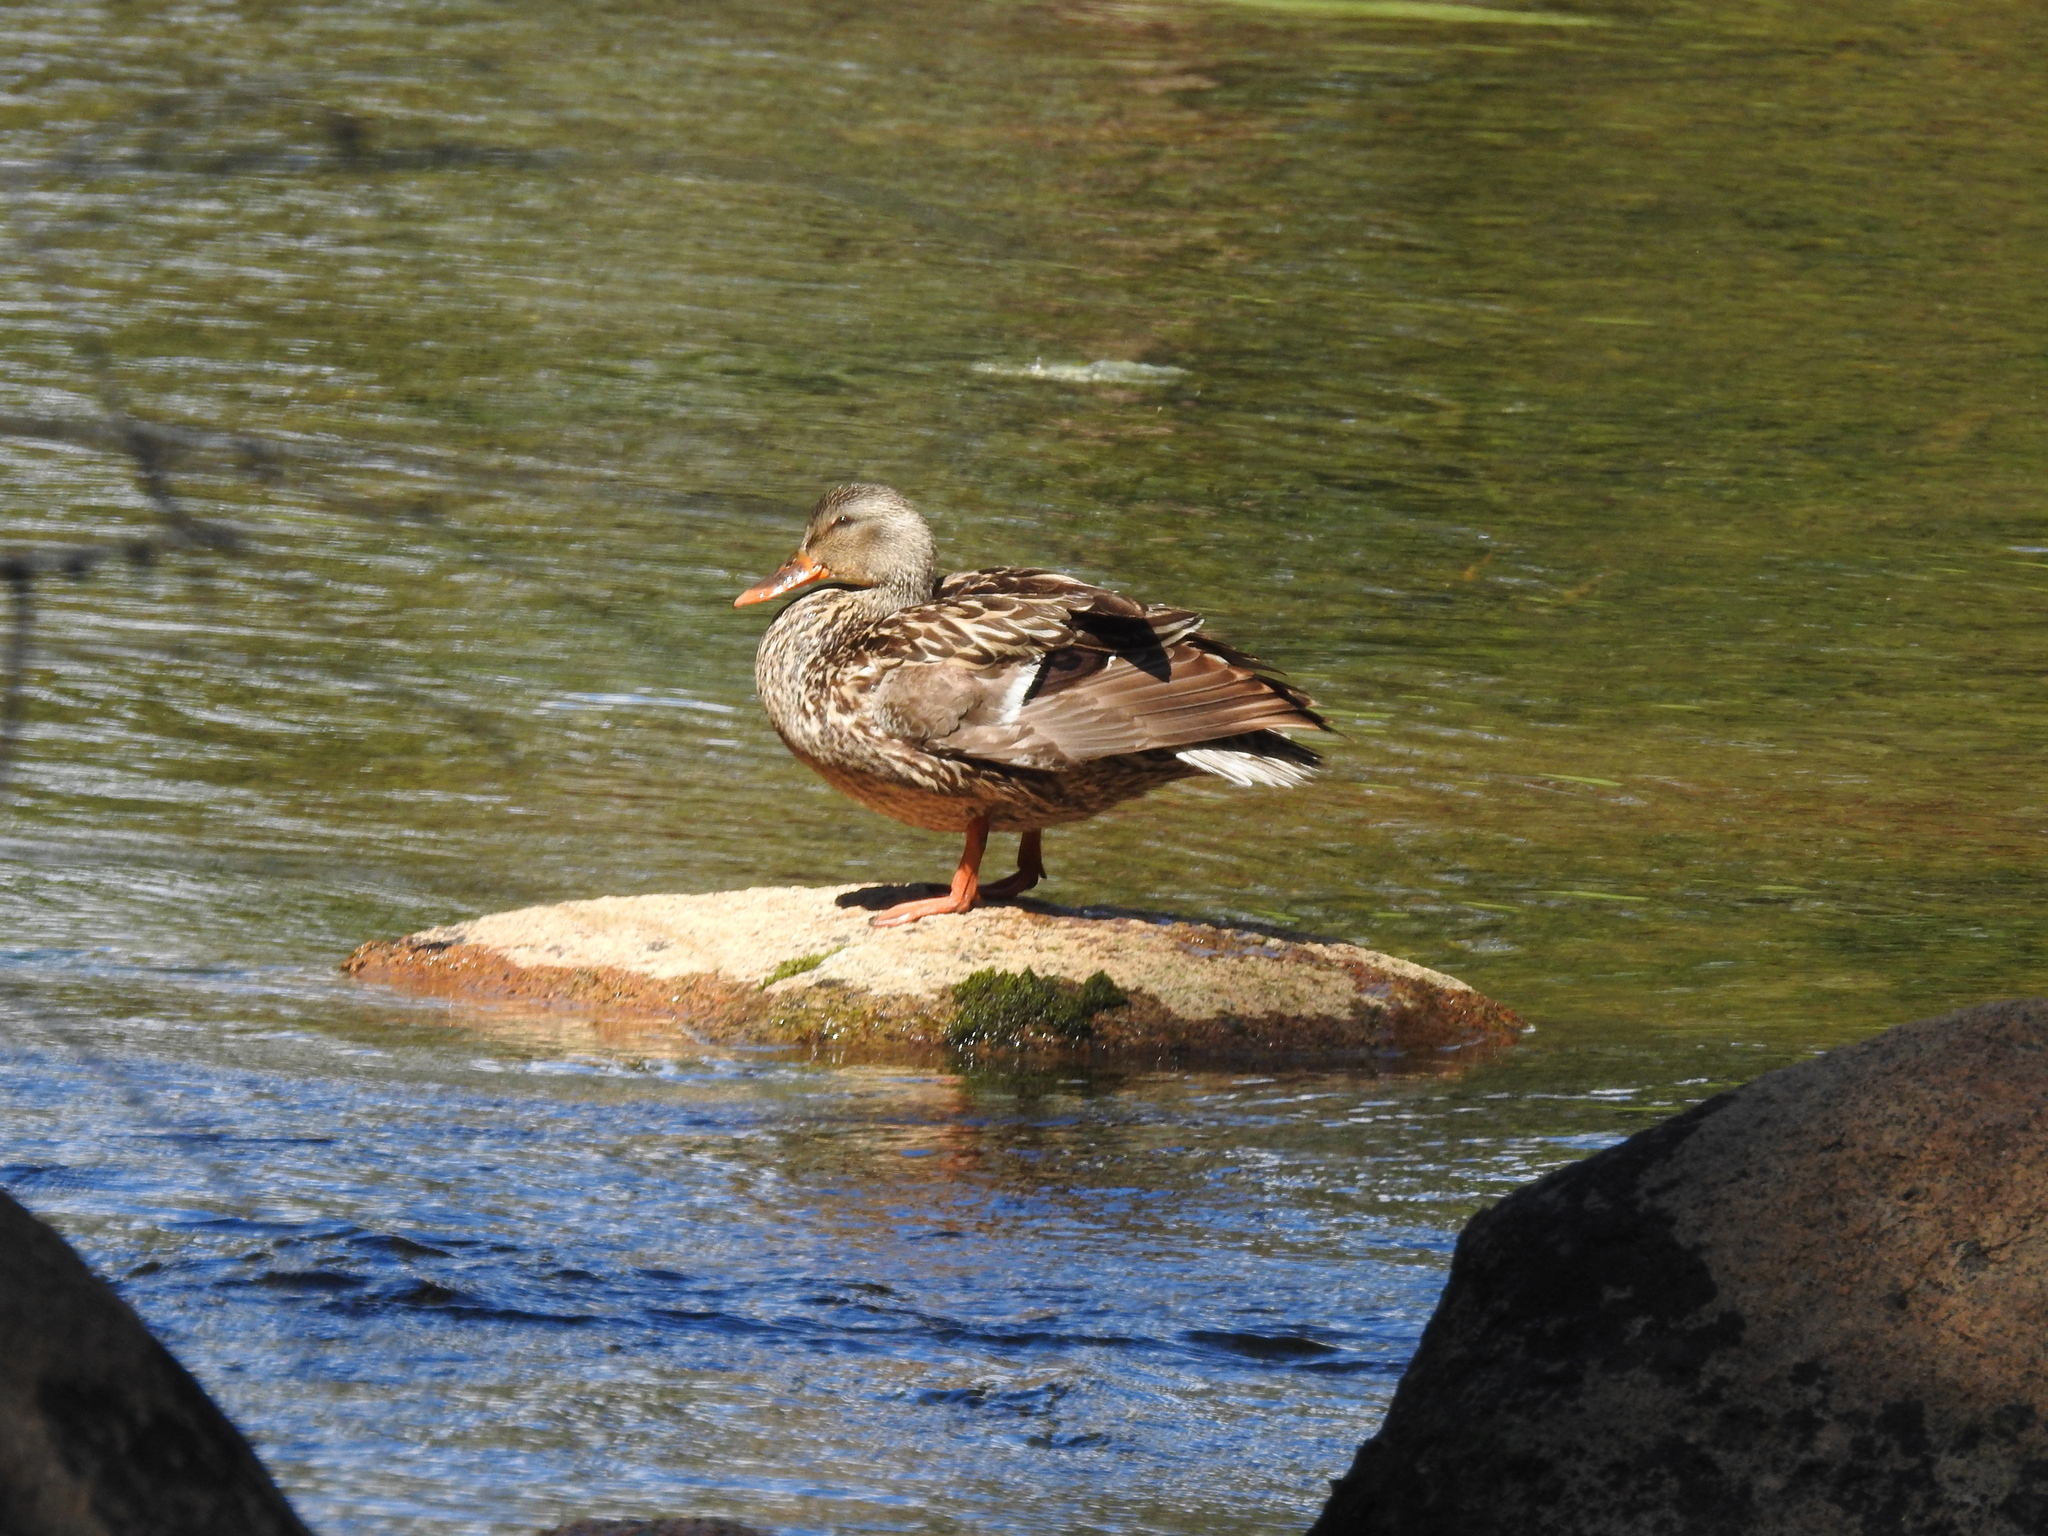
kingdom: Animalia
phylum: Chordata
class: Aves
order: Anseriformes
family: Anatidae
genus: Anas
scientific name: Anas platyrhynchos
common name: Mallard
